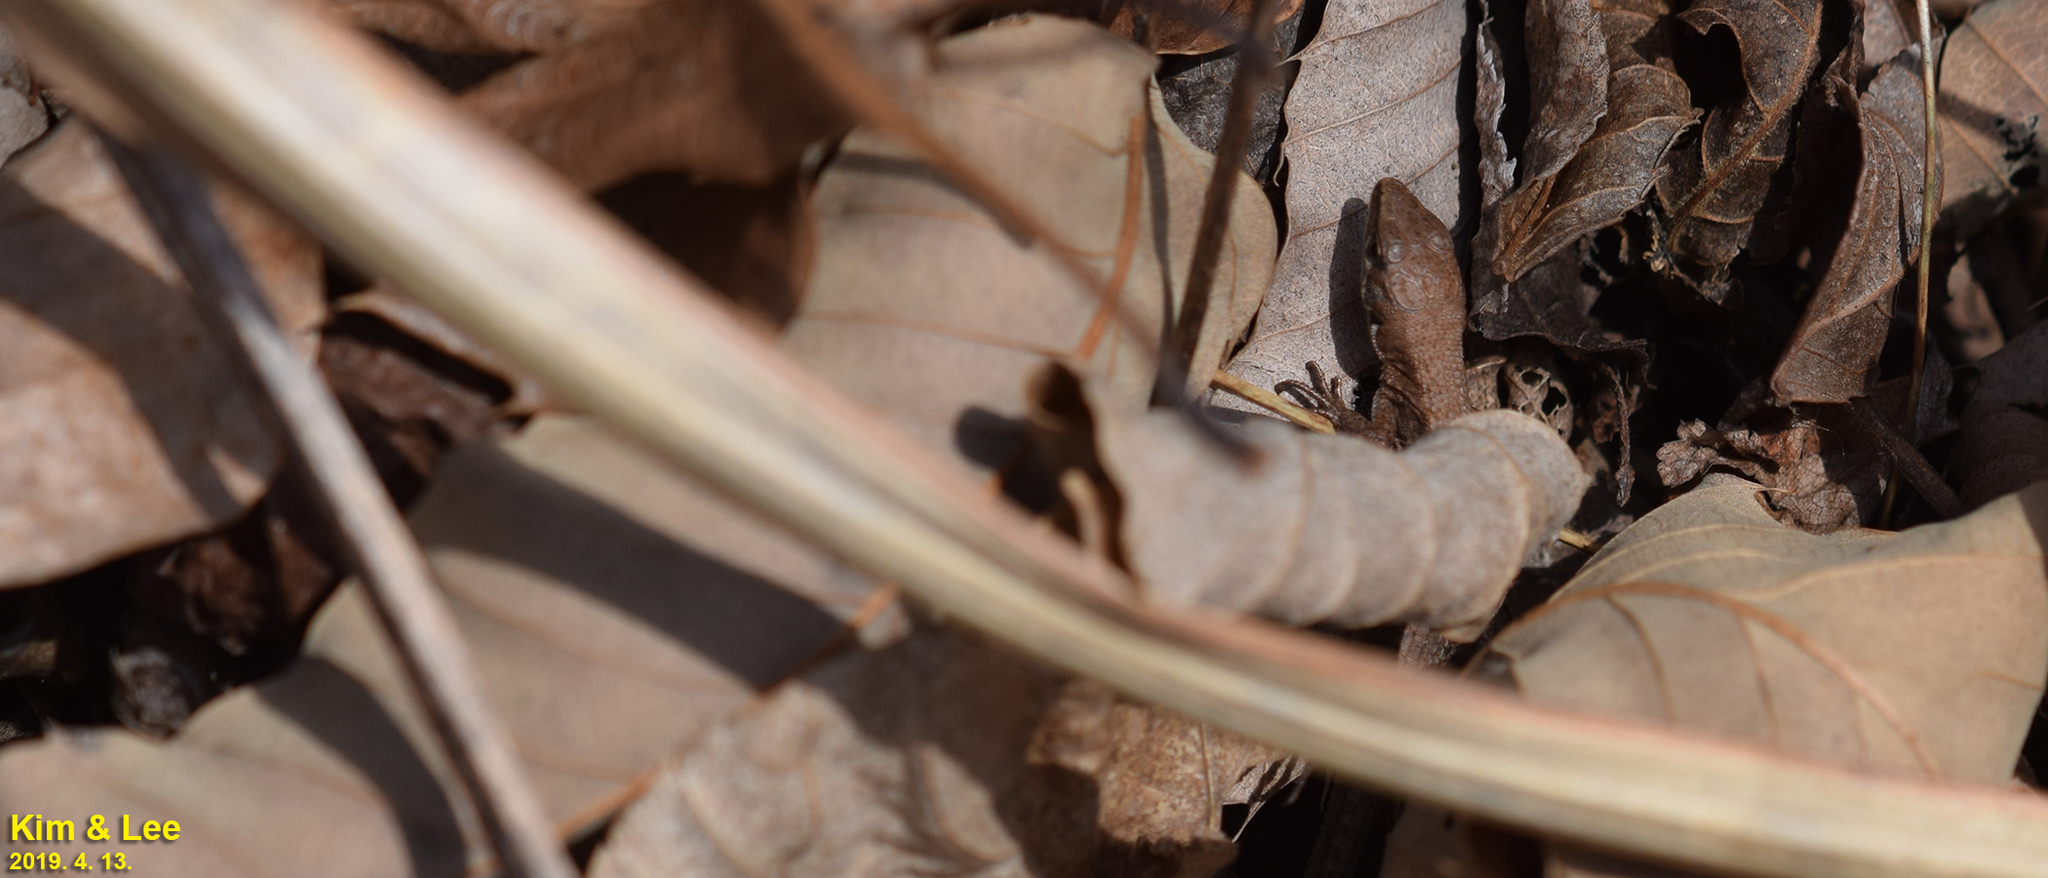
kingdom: Animalia
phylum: Chordata
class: Squamata
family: Lacertidae
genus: Takydromus
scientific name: Takydromus amurensis
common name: Amur grass lizard
